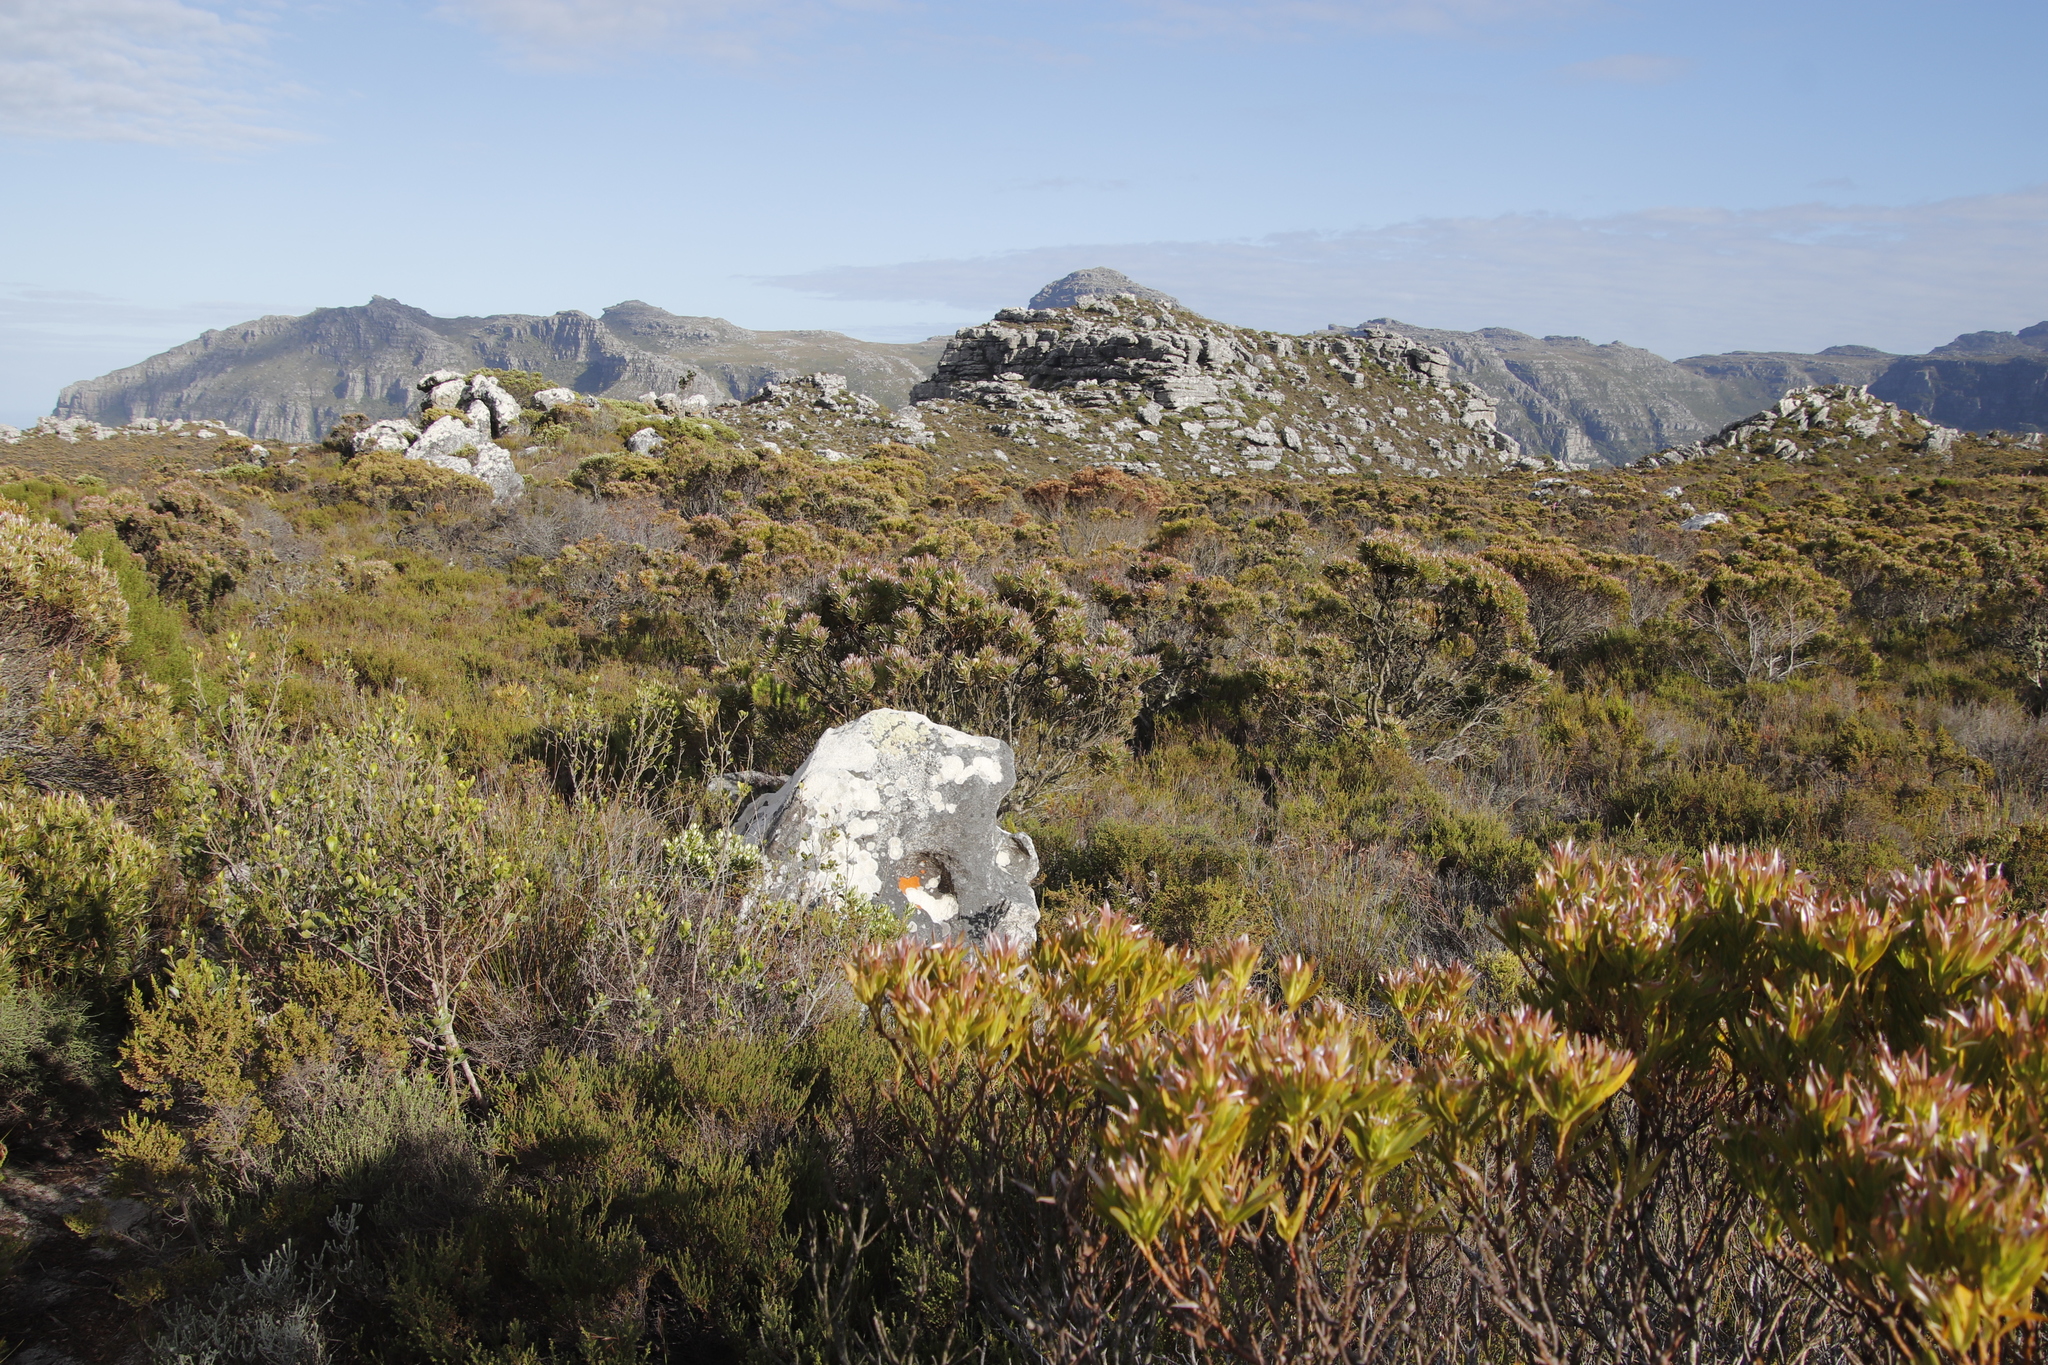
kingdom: Plantae
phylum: Tracheophyta
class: Magnoliopsida
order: Proteales
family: Proteaceae
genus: Leucadendron
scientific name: Leucadendron xanthoconus
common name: Sickle-leaf conebush
